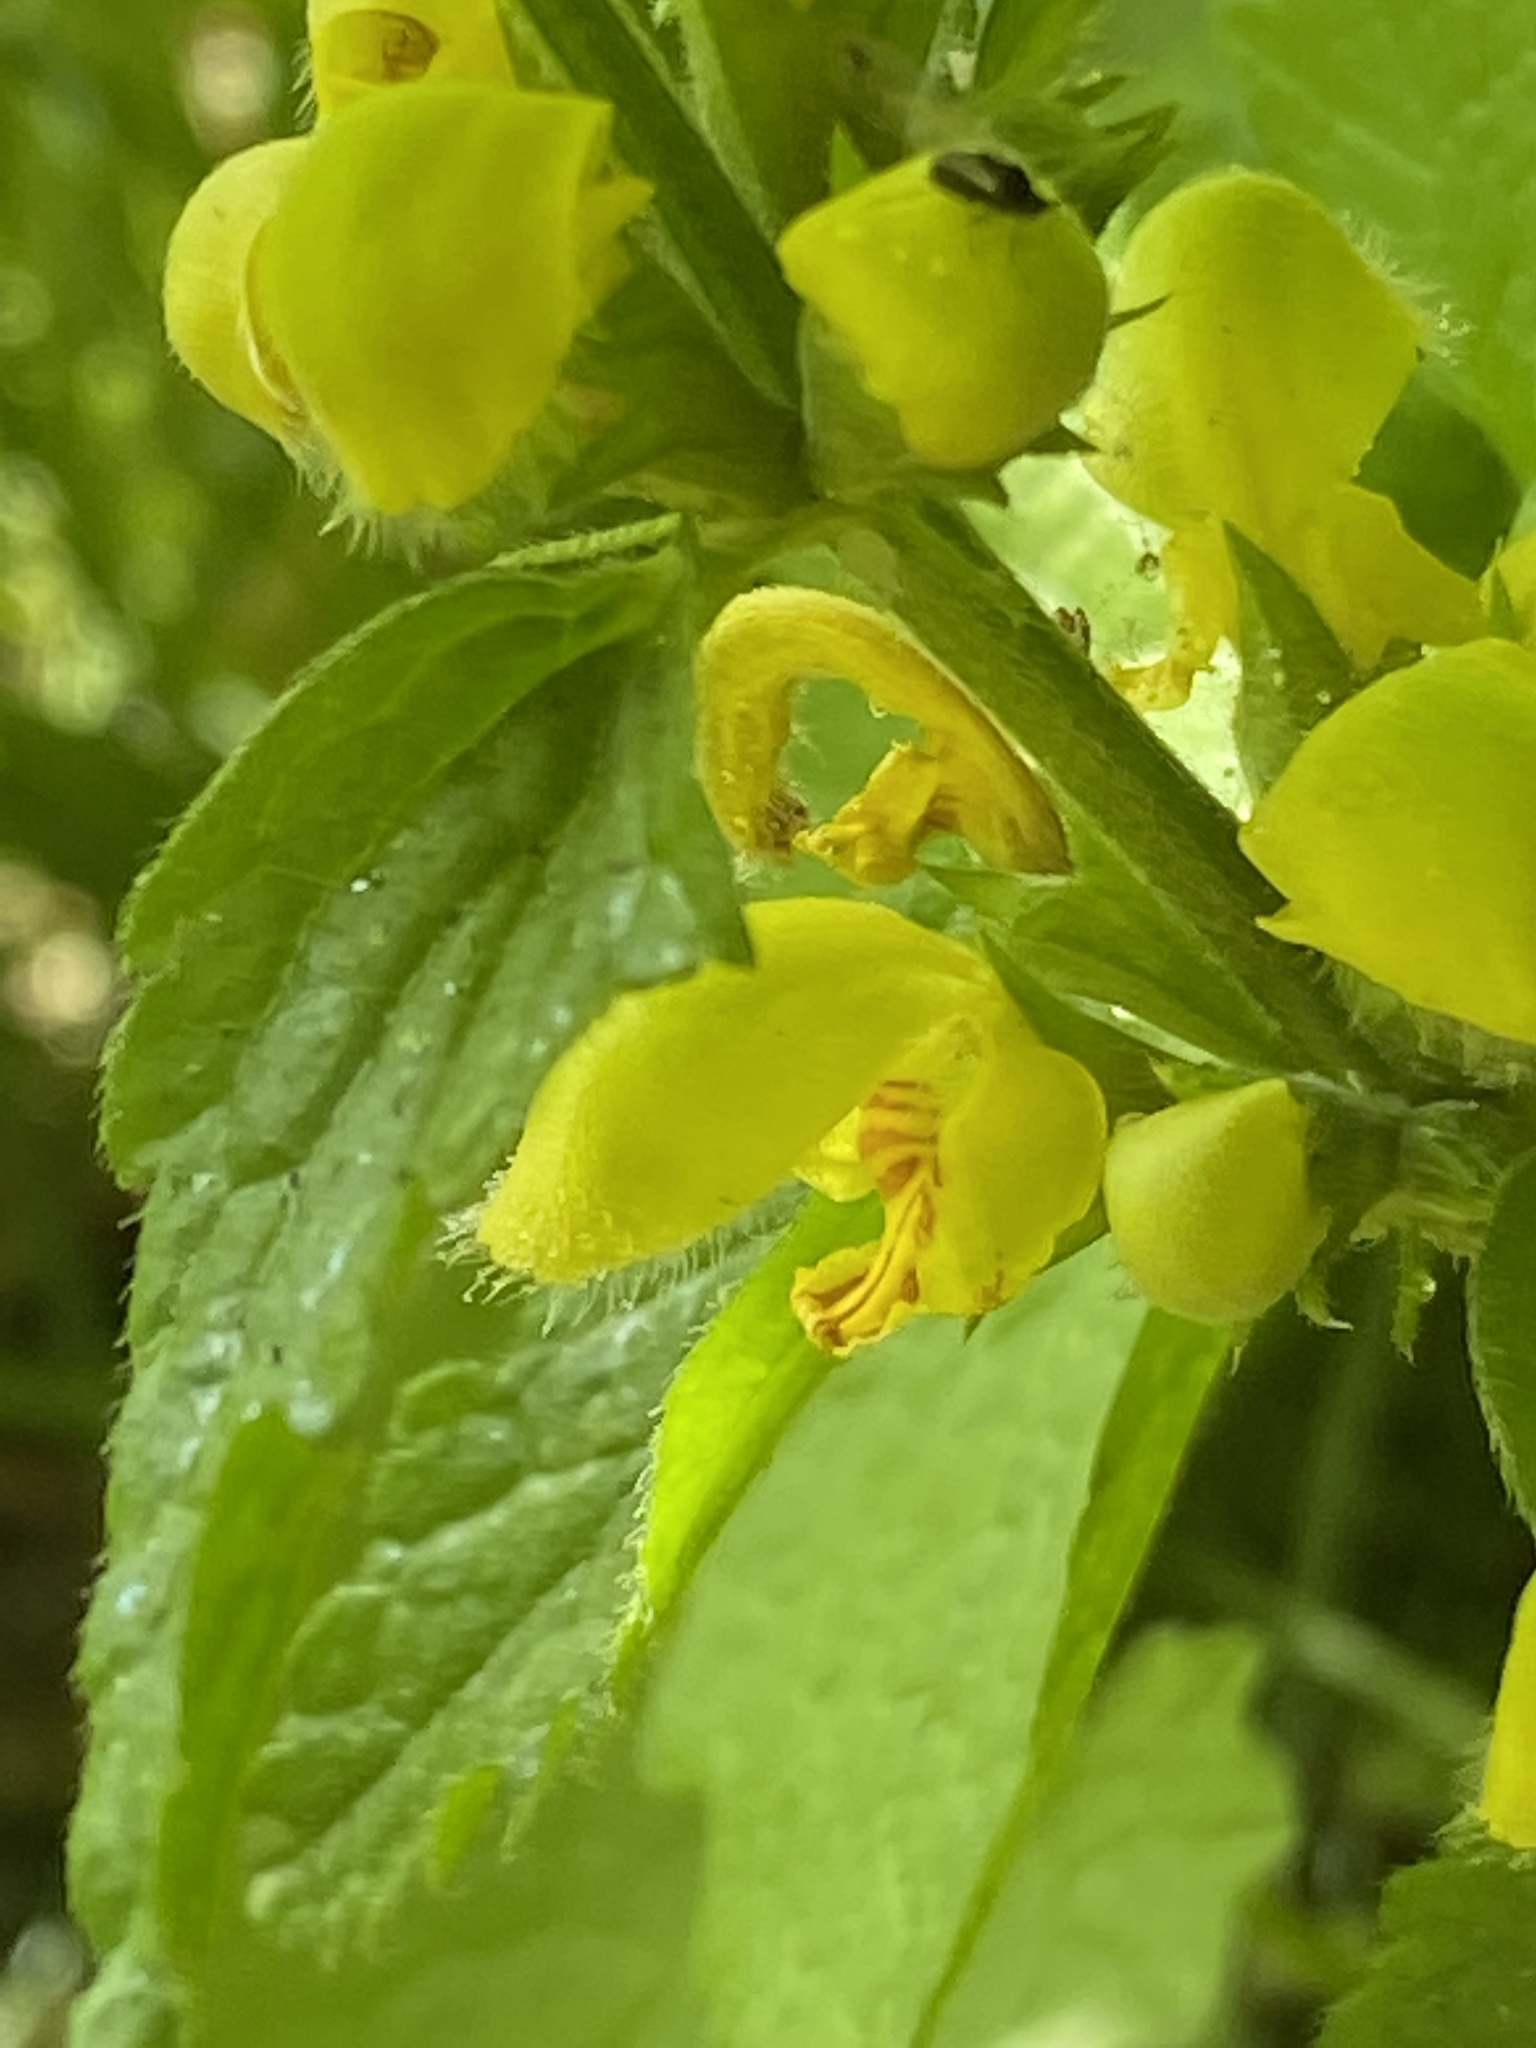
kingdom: Plantae
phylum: Tracheophyta
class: Magnoliopsida
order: Lamiales
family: Lamiaceae
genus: Lamium
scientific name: Lamium galeobdolon
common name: Yellow archangel
